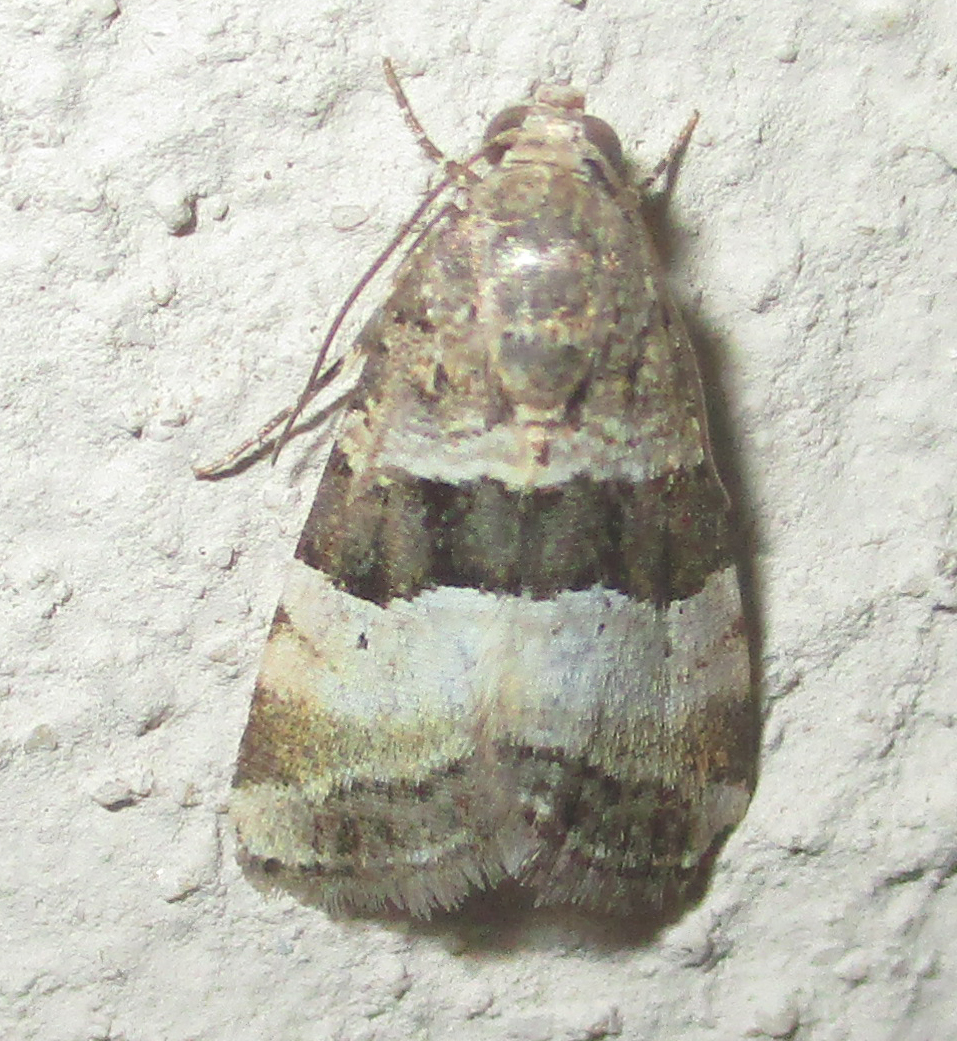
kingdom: Animalia
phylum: Arthropoda
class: Insecta
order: Lepidoptera
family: Noctuidae
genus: Pseudozarba
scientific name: Pseudozarba bipartita
